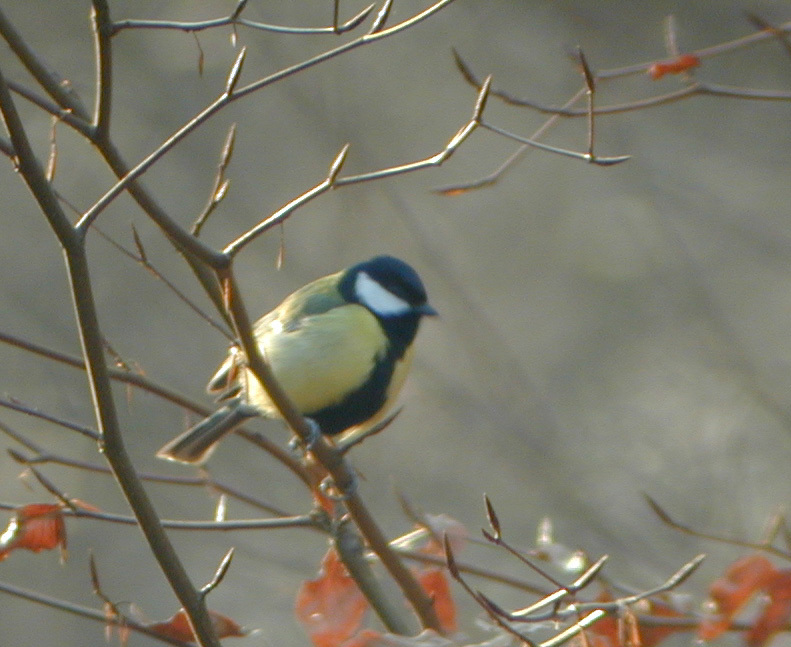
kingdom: Animalia
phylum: Chordata
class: Aves
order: Passeriformes
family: Paridae
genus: Parus
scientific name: Parus major
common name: Great tit
